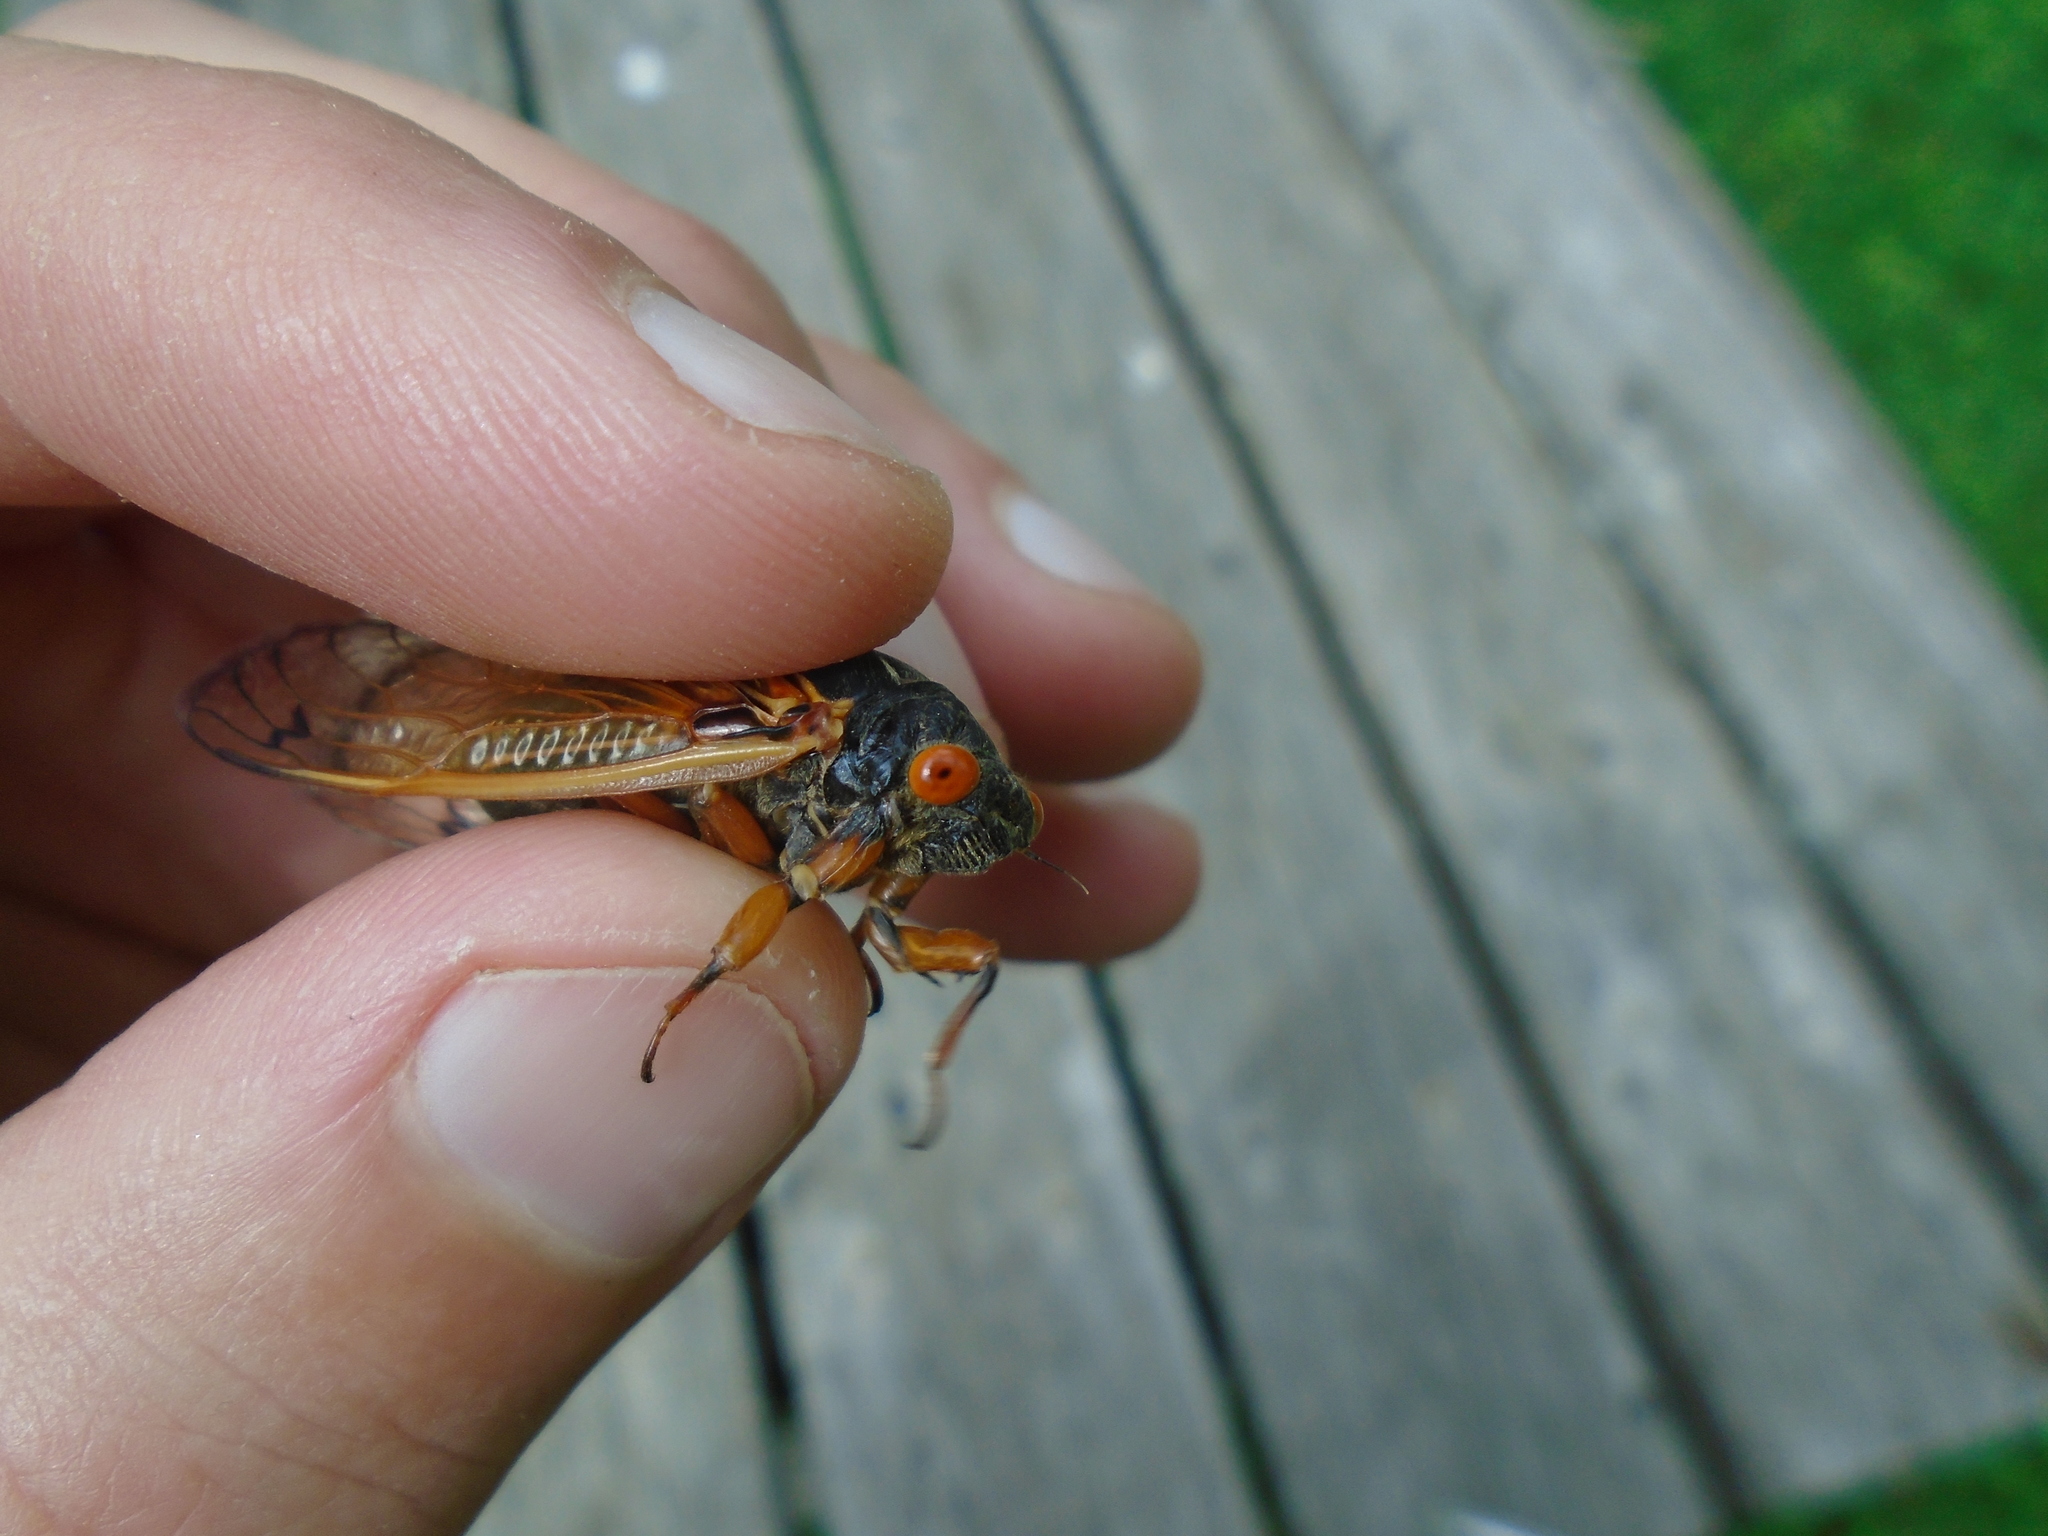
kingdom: Animalia
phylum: Arthropoda
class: Insecta
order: Hemiptera
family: Cicadidae
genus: Magicicada
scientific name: Magicicada cassini
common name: Cassin's 17-year cicada
